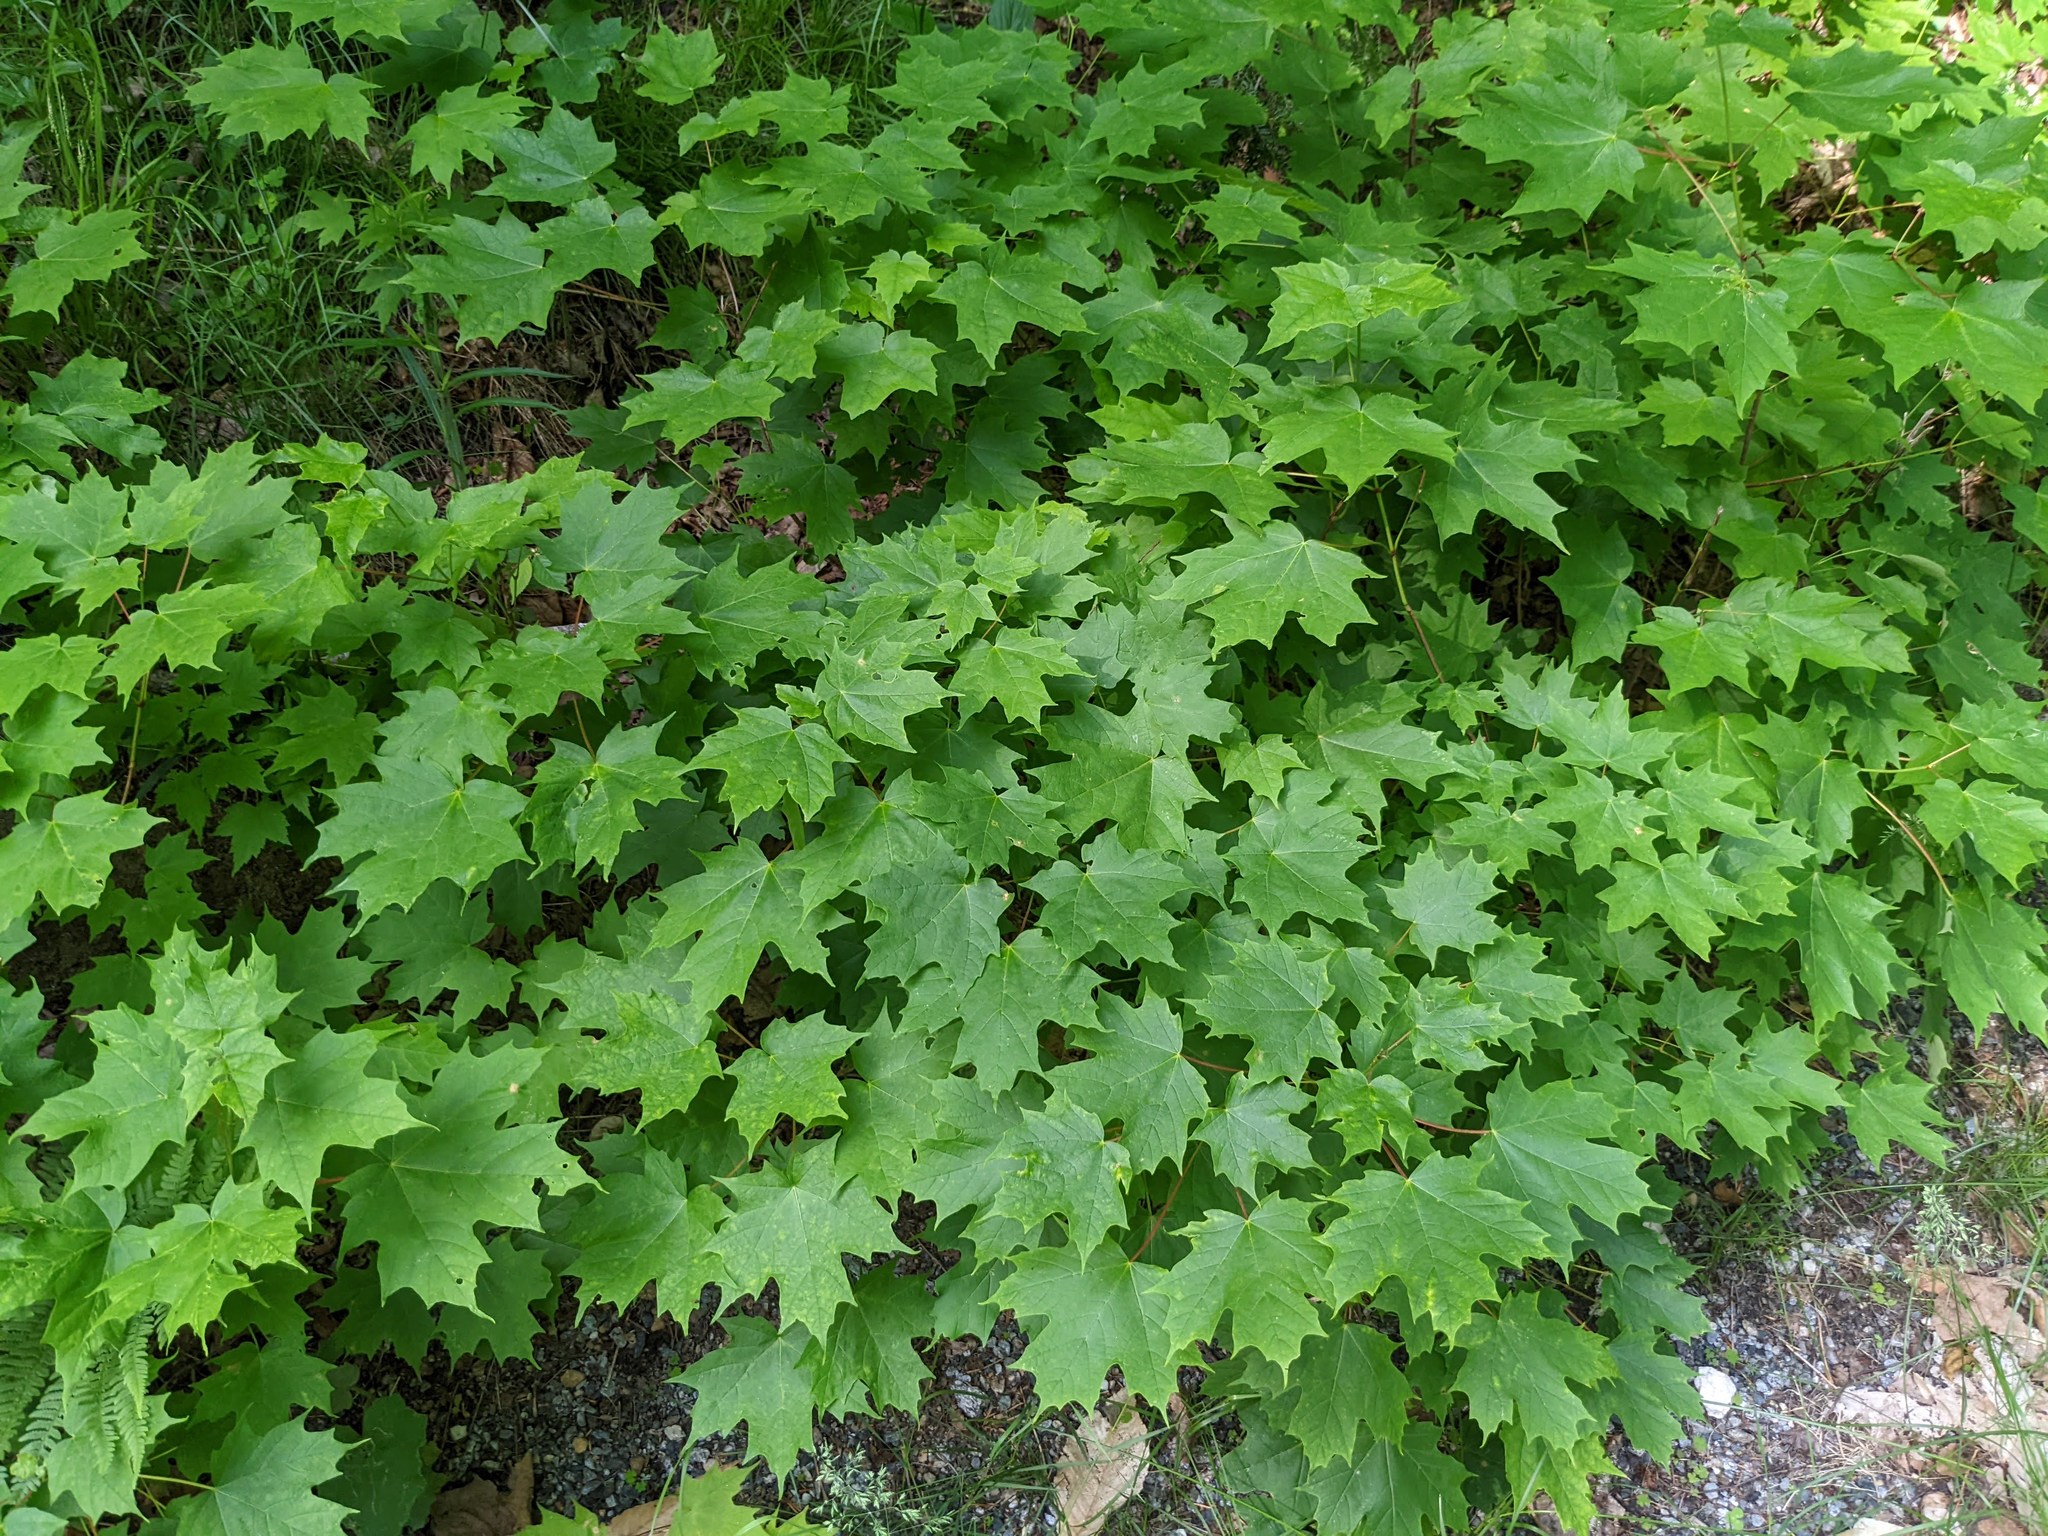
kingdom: Plantae
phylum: Tracheophyta
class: Magnoliopsida
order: Sapindales
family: Sapindaceae
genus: Acer
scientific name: Acer saccharum
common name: Sugar maple
